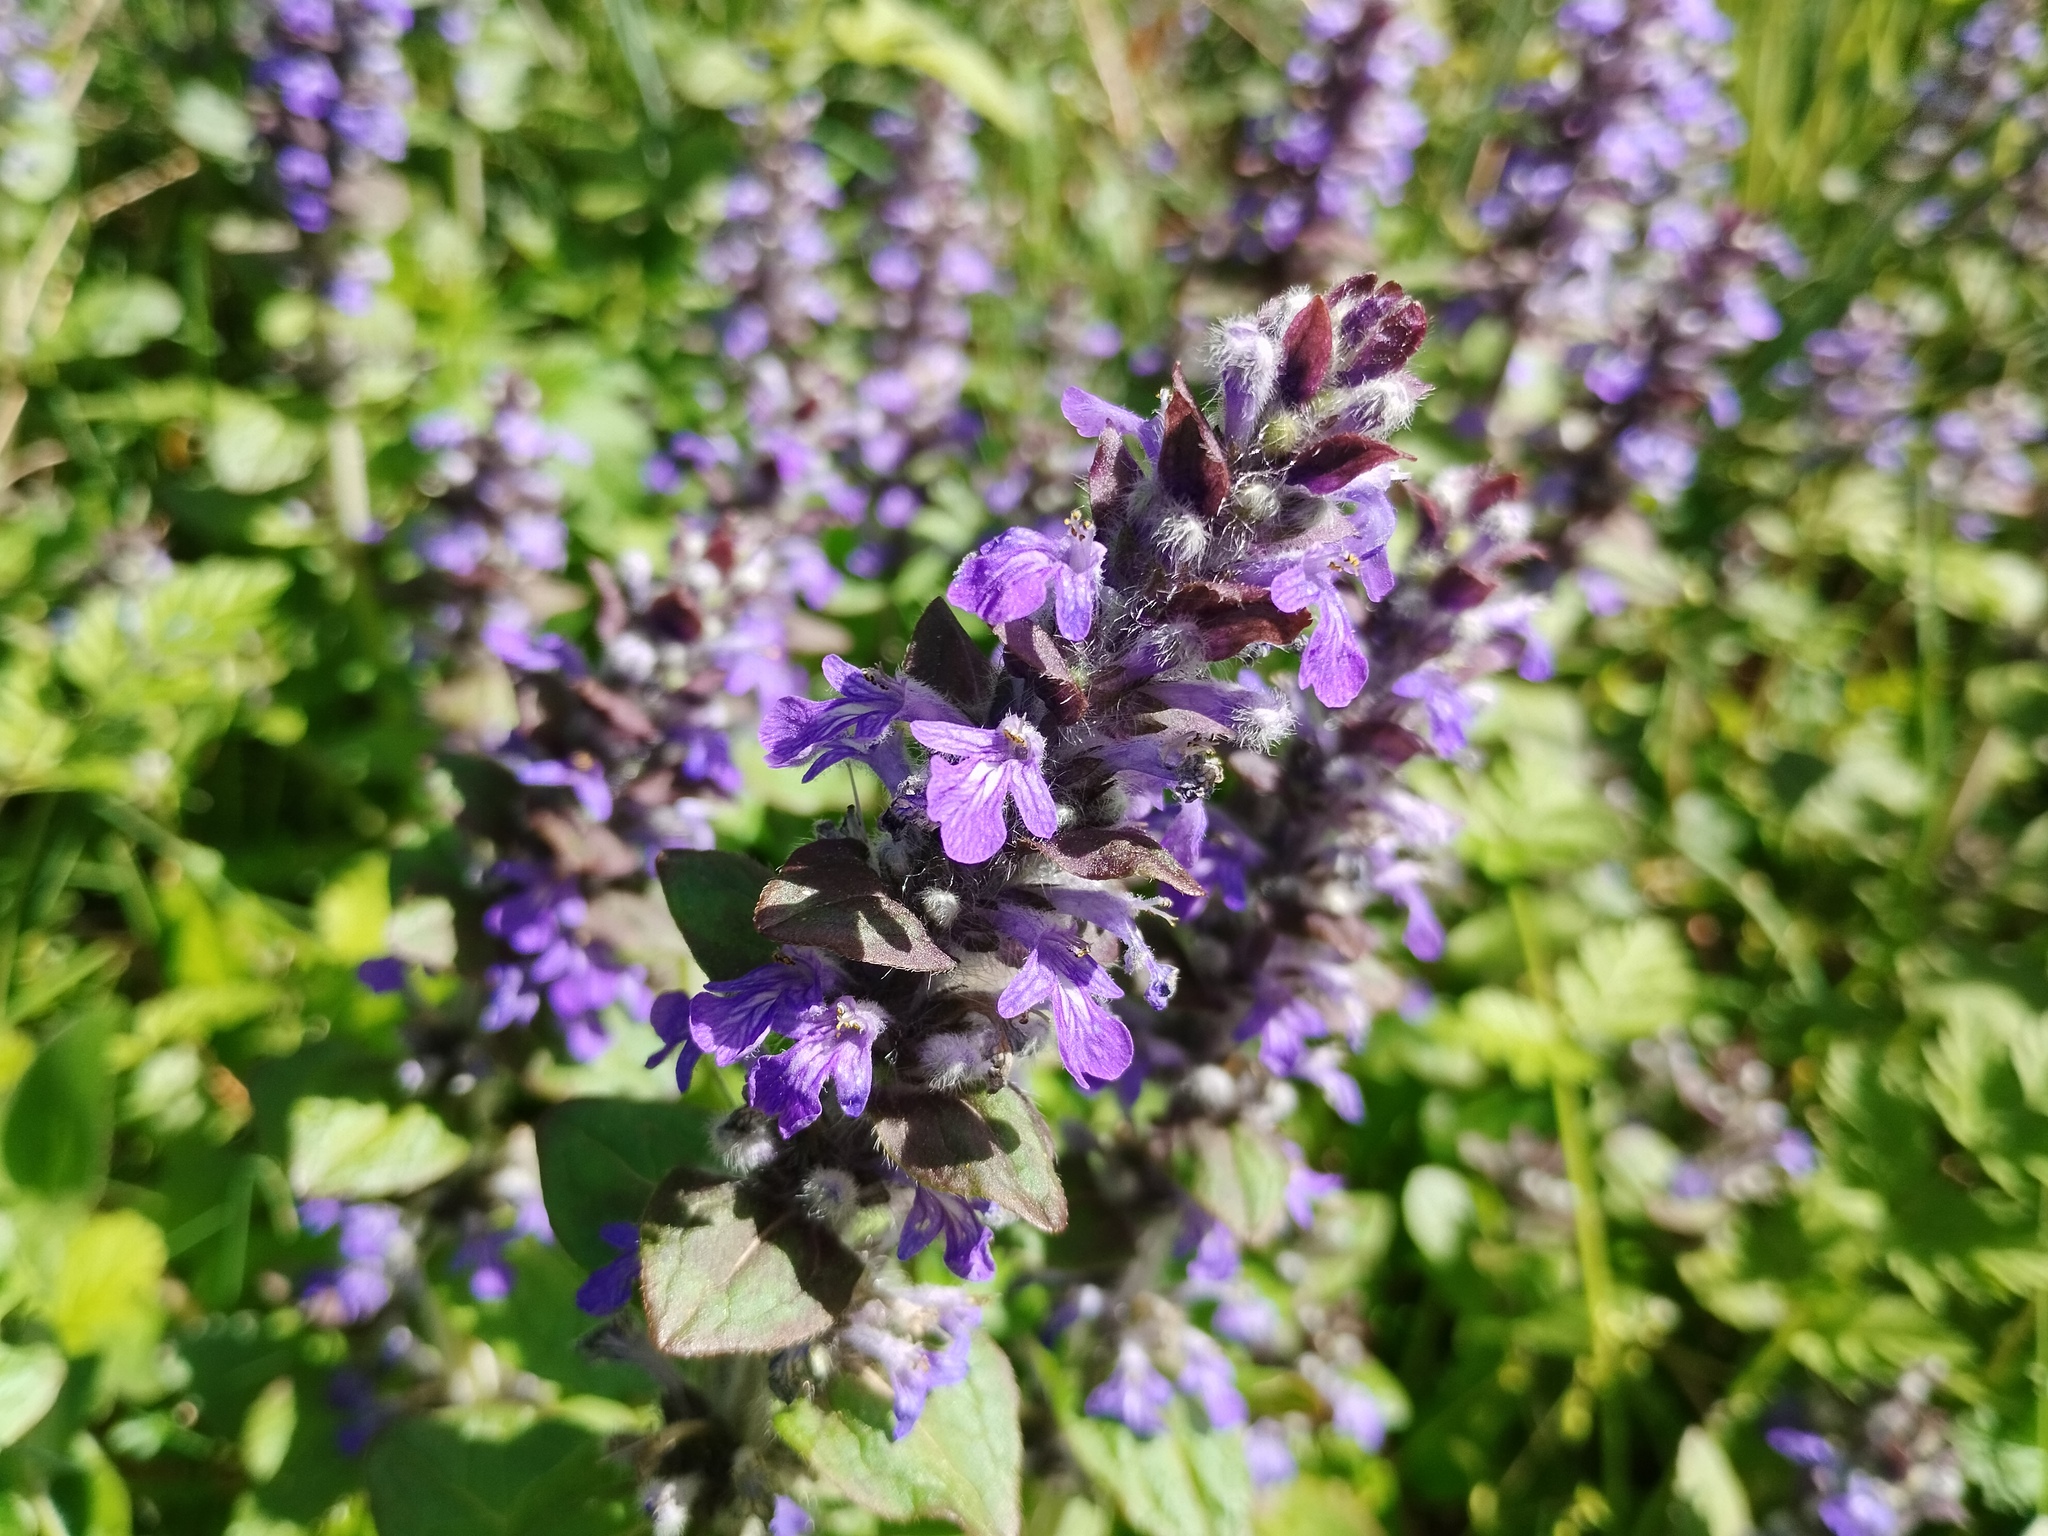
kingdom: Plantae
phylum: Tracheophyta
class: Magnoliopsida
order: Lamiales
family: Lamiaceae
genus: Ajuga
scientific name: Ajuga reptans
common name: Bugle
